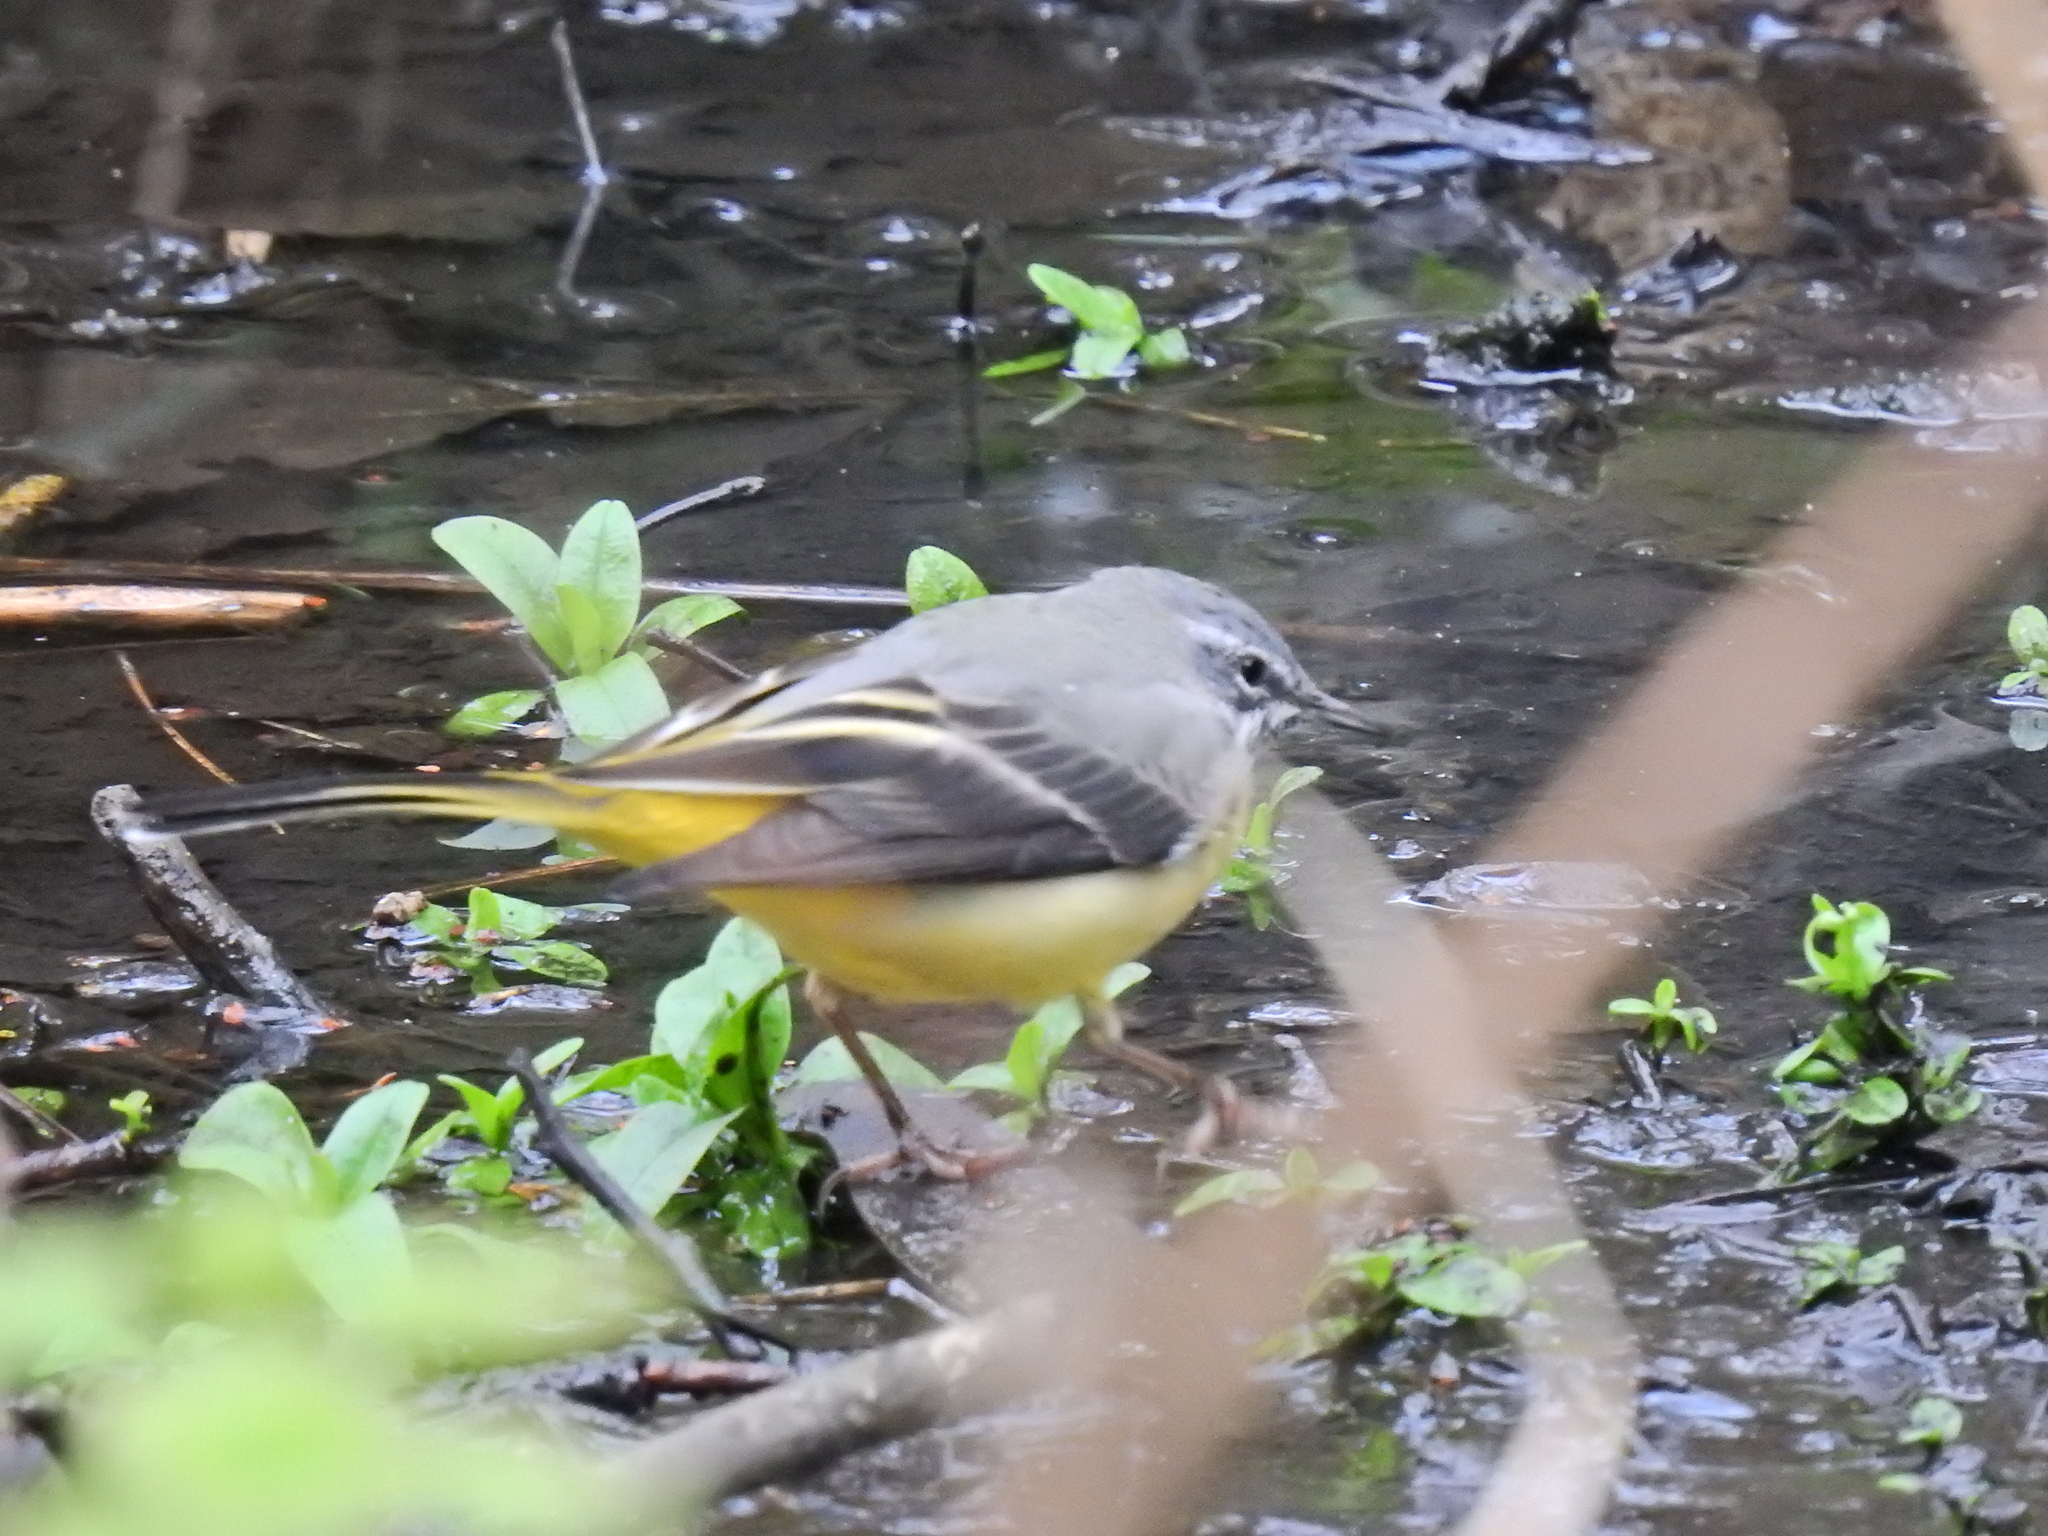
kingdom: Animalia
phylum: Chordata
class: Aves
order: Passeriformes
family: Motacillidae
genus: Motacilla
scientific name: Motacilla cinerea
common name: Grey wagtail
